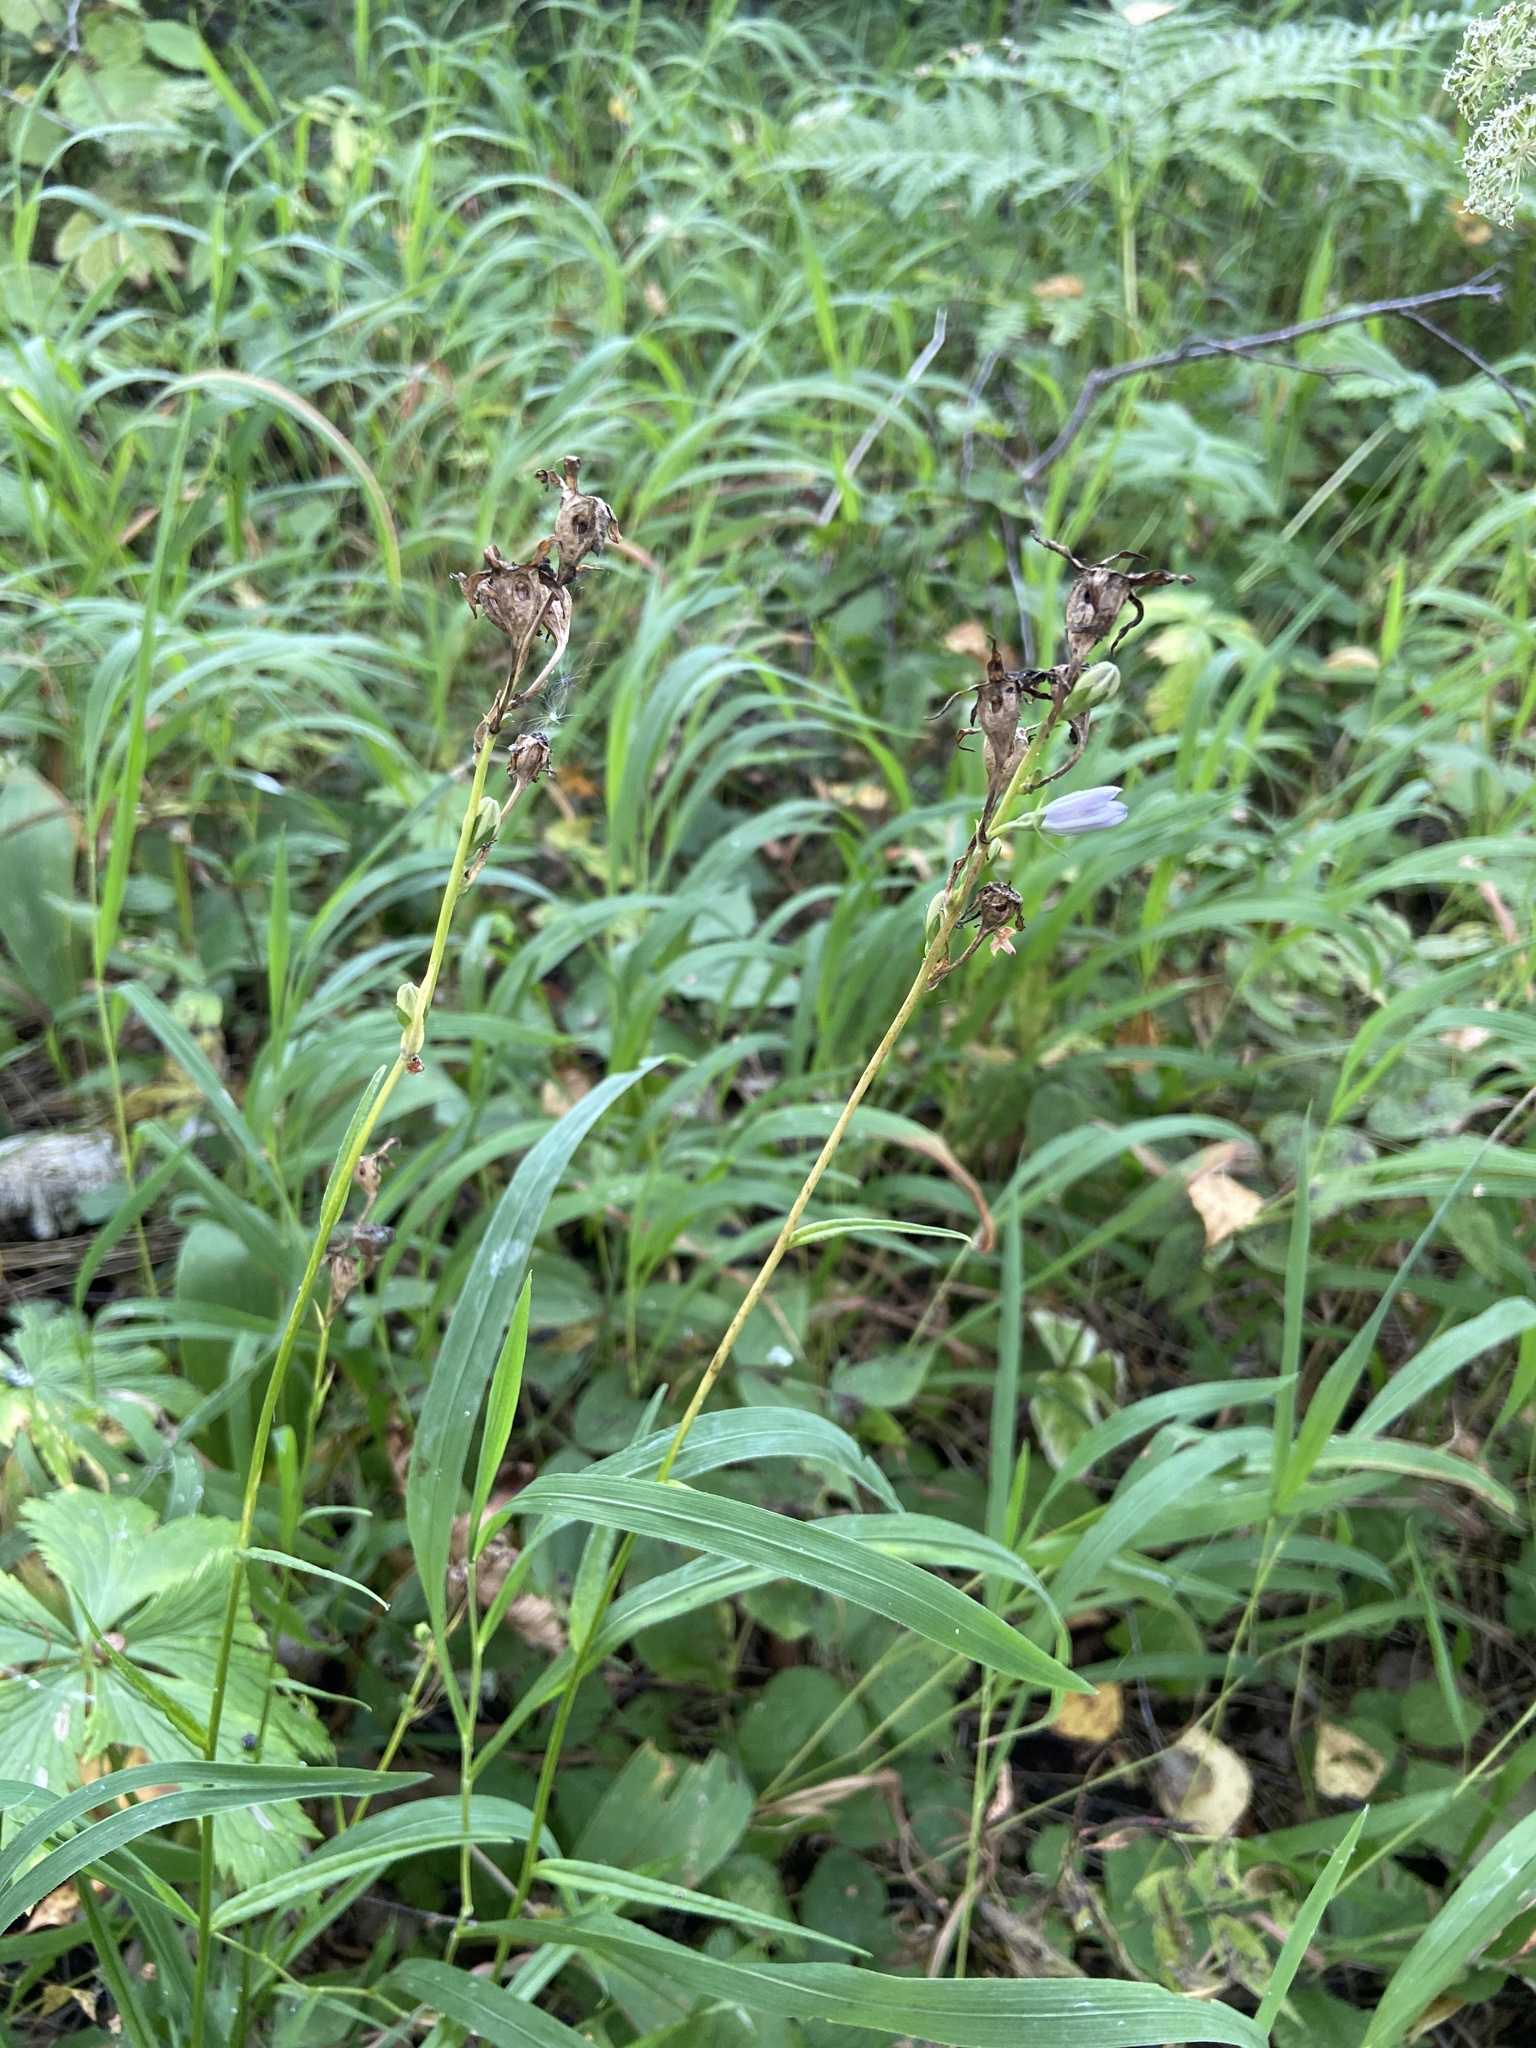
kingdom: Plantae
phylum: Tracheophyta
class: Magnoliopsida
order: Asterales
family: Campanulaceae
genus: Campanula
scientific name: Campanula persicifolia
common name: Peach-leaved bellflower
